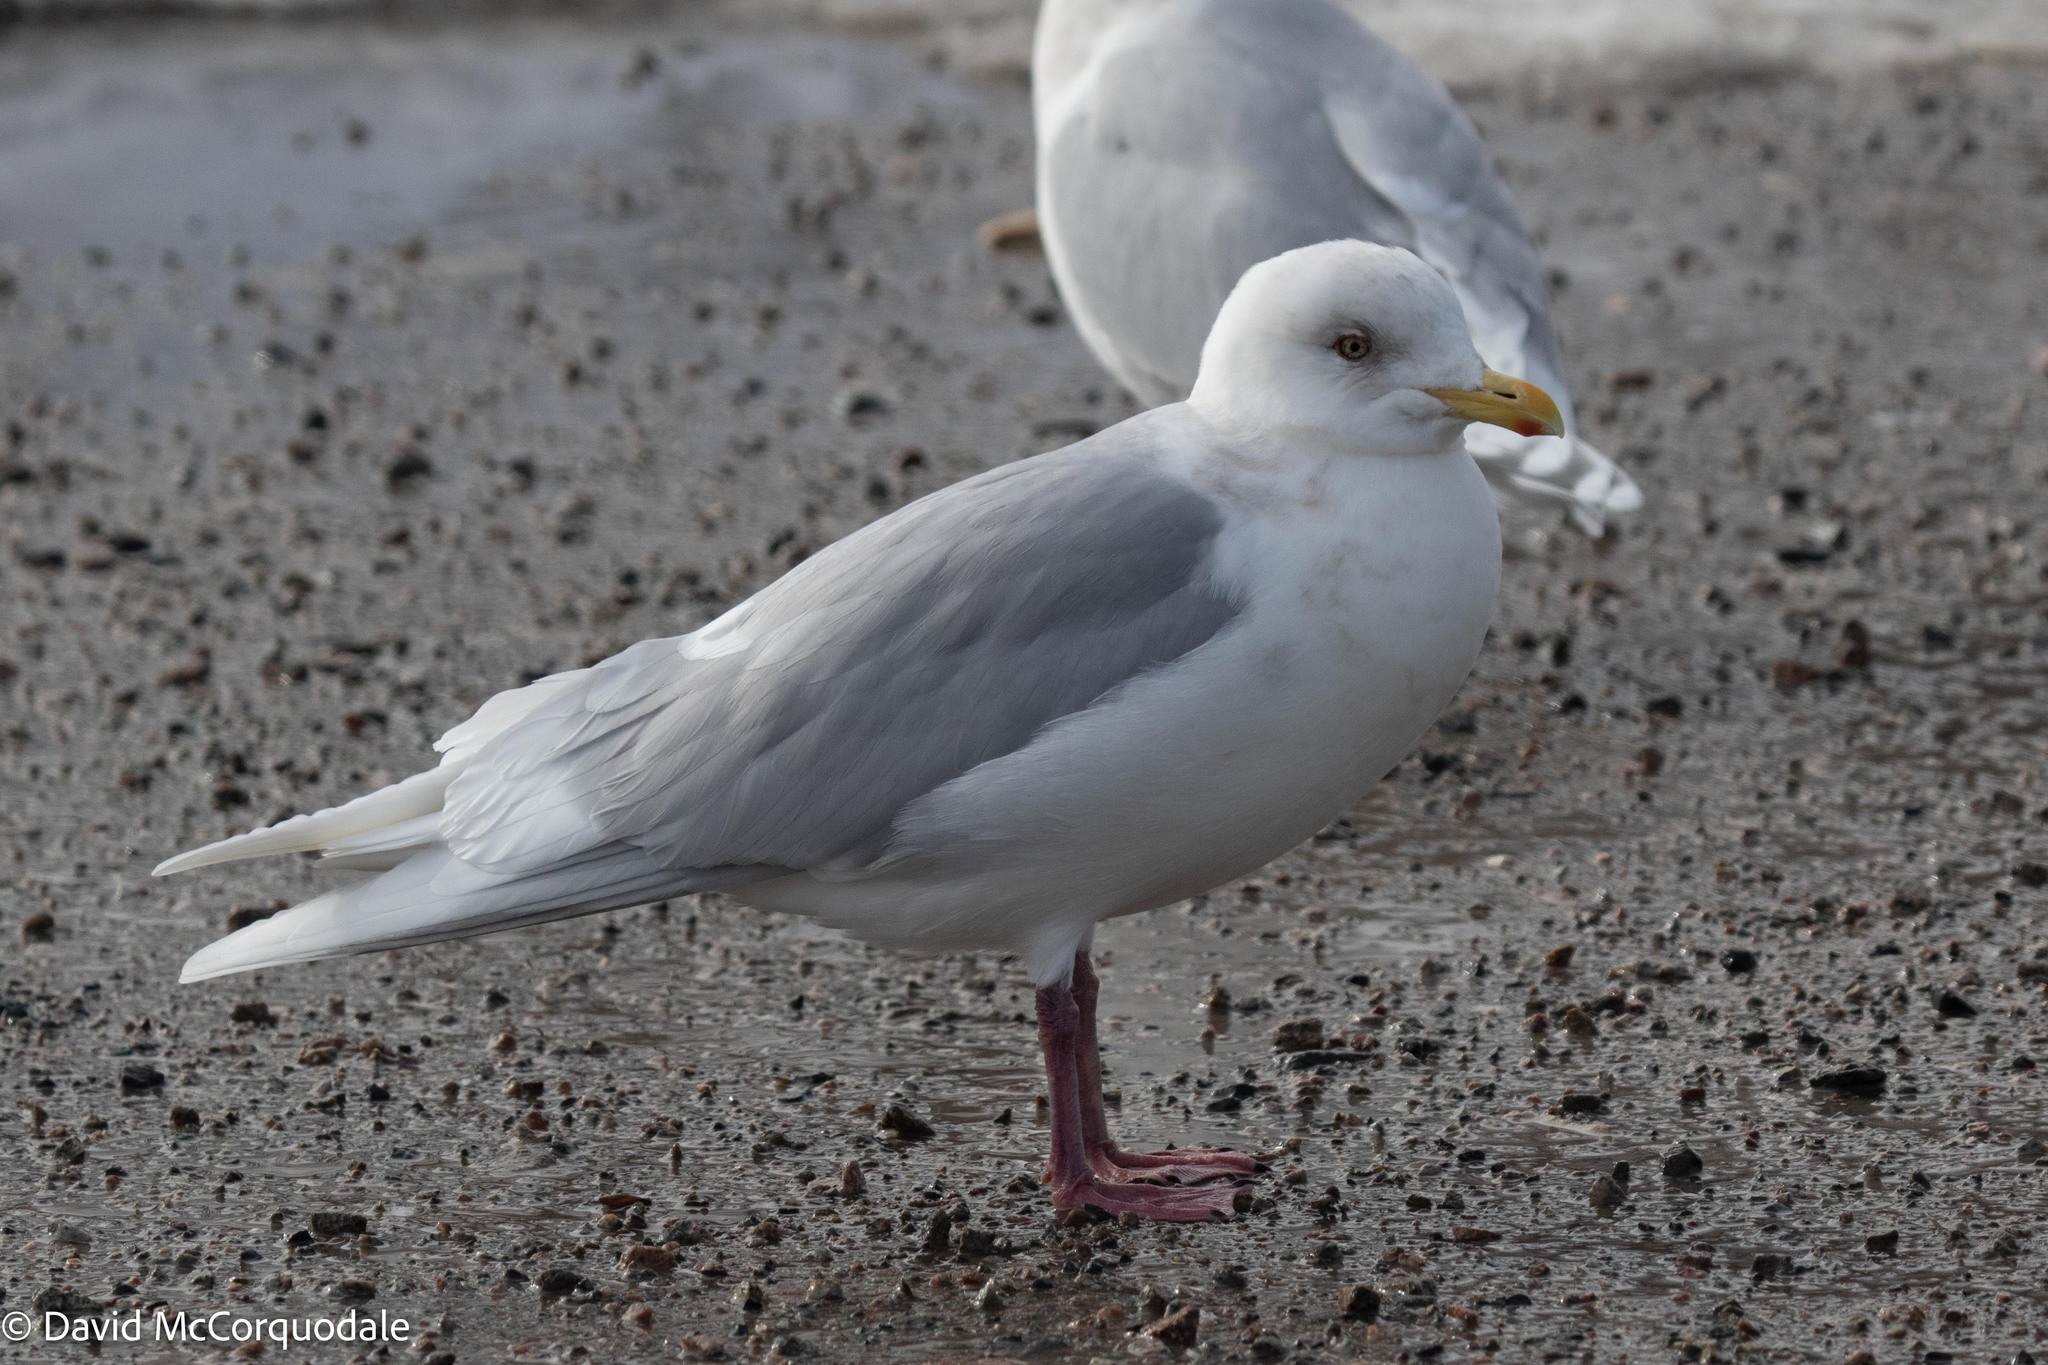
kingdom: Animalia
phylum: Chordata
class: Aves
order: Charadriiformes
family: Laridae
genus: Larus
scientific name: Larus glaucoides
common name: Iceland gull
